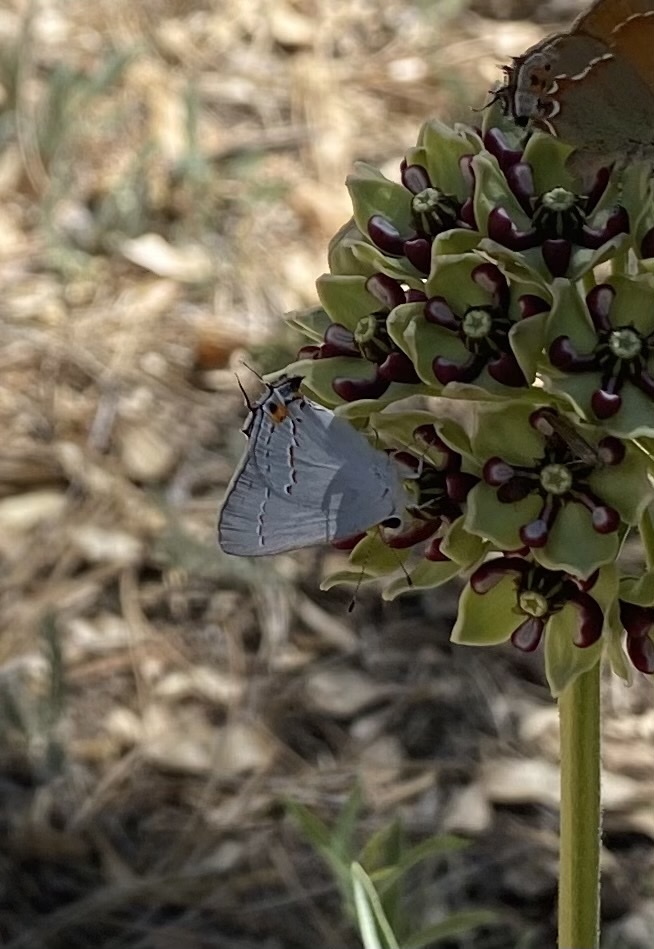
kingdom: Animalia
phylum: Arthropoda
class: Insecta
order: Lepidoptera
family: Lycaenidae
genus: Strymon
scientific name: Strymon melinus
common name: Gray hairstreak
